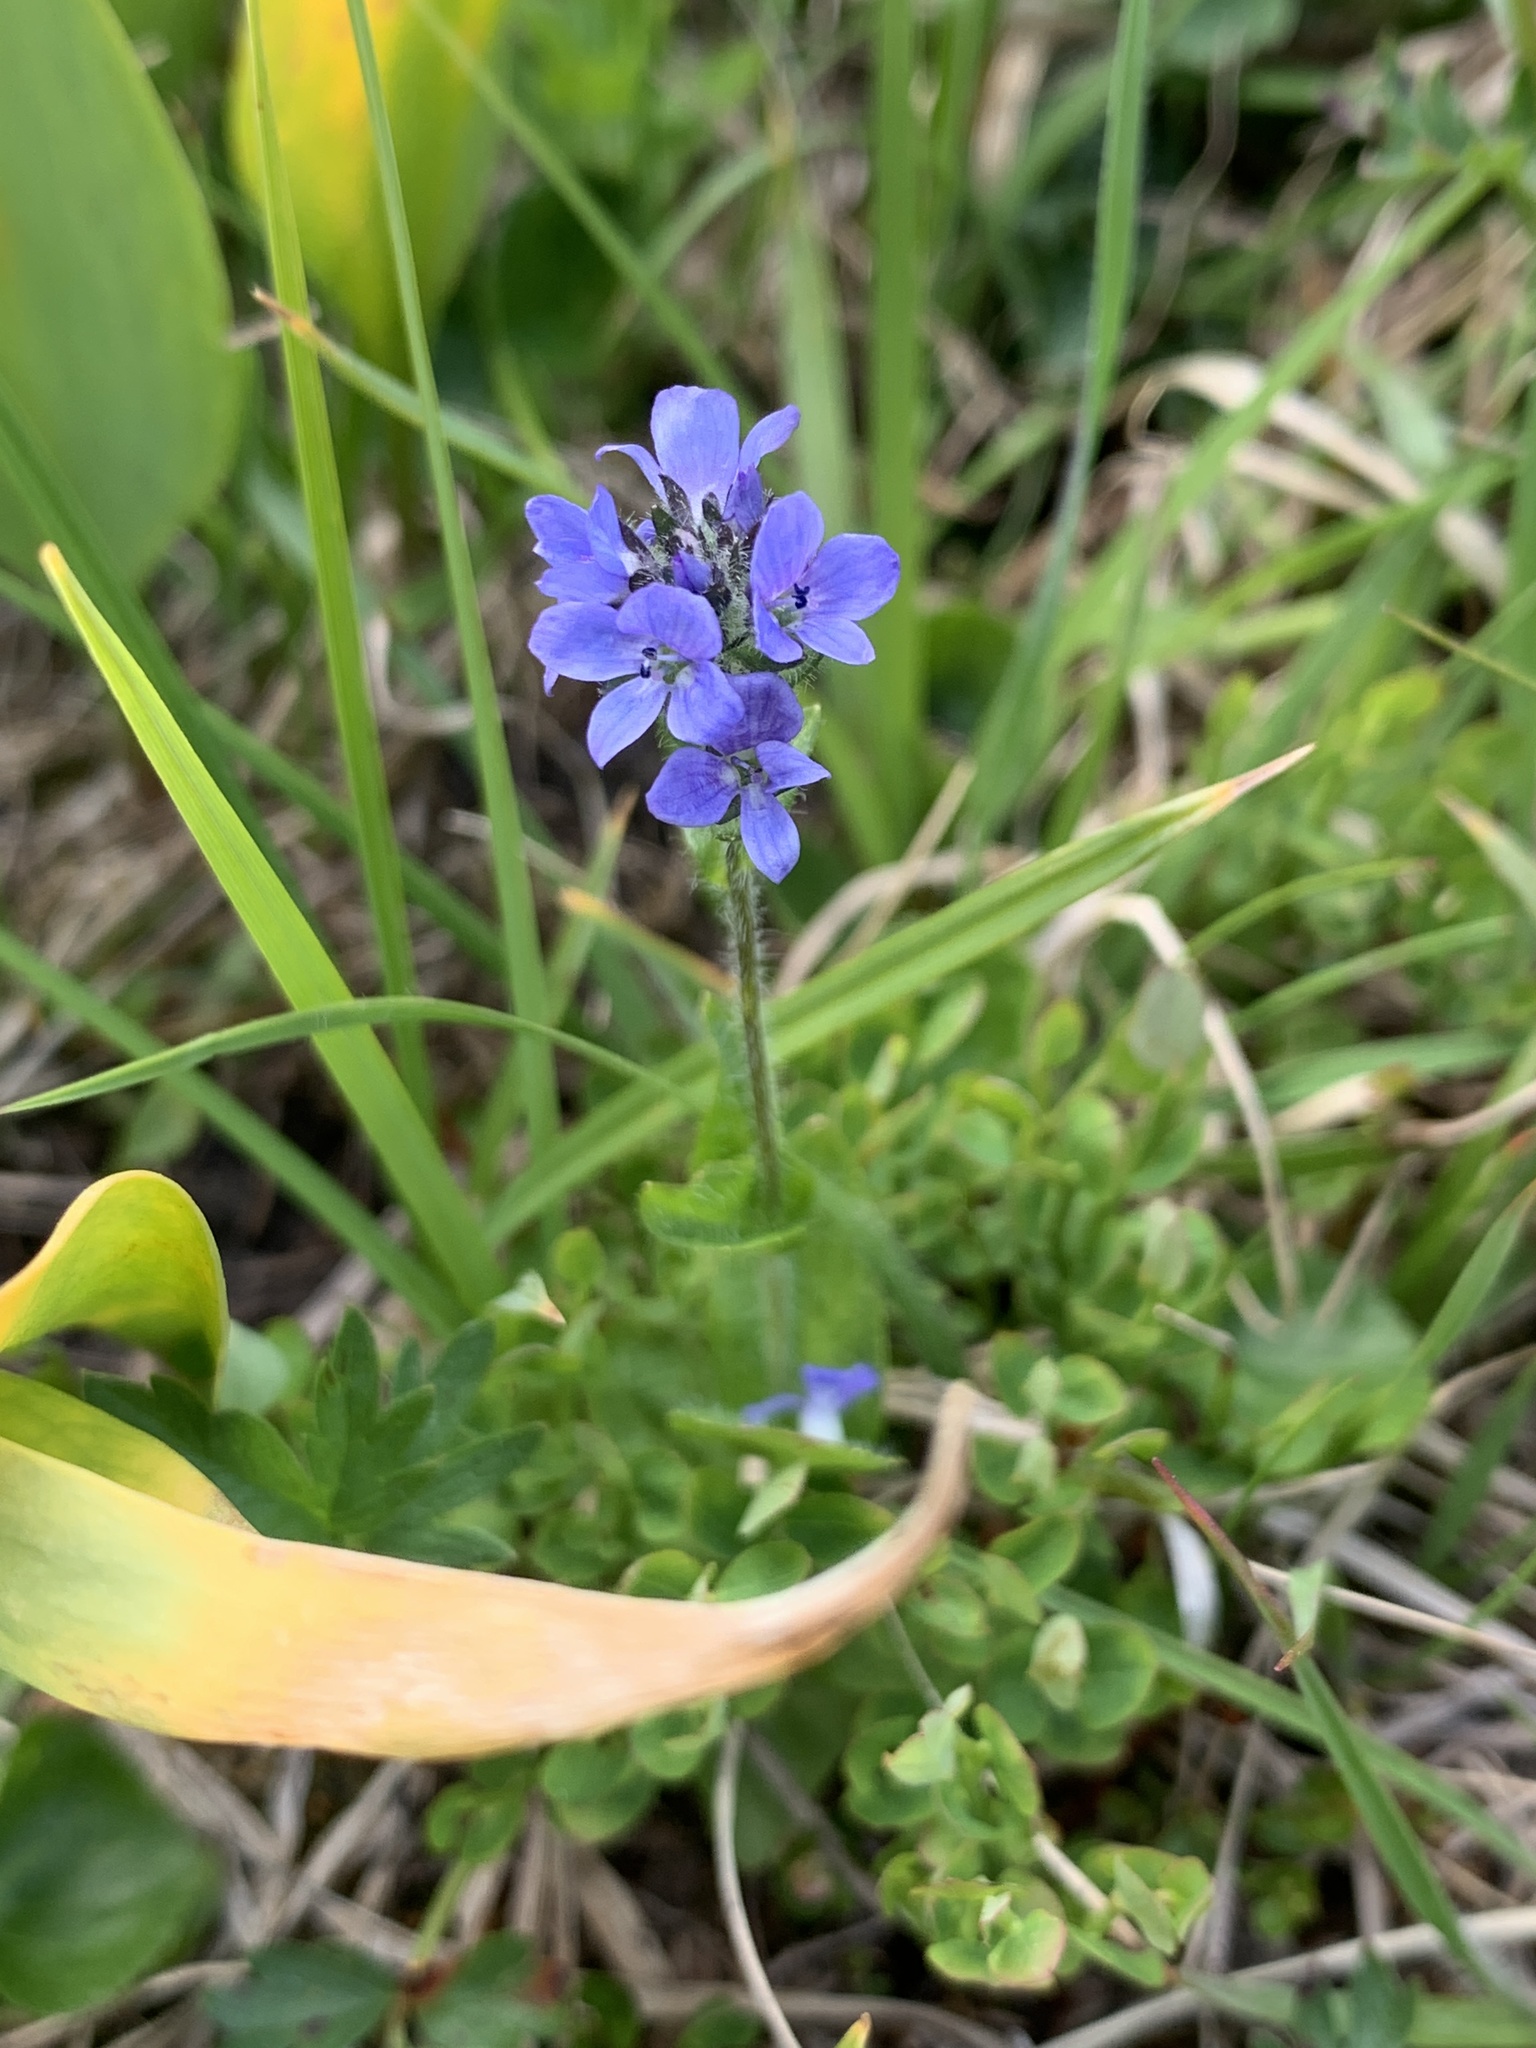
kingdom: Plantae
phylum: Tracheophyta
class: Magnoliopsida
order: Lamiales
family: Plantaginaceae
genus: Veronica
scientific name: Veronica wormskjoldii
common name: American alpine speedwell
